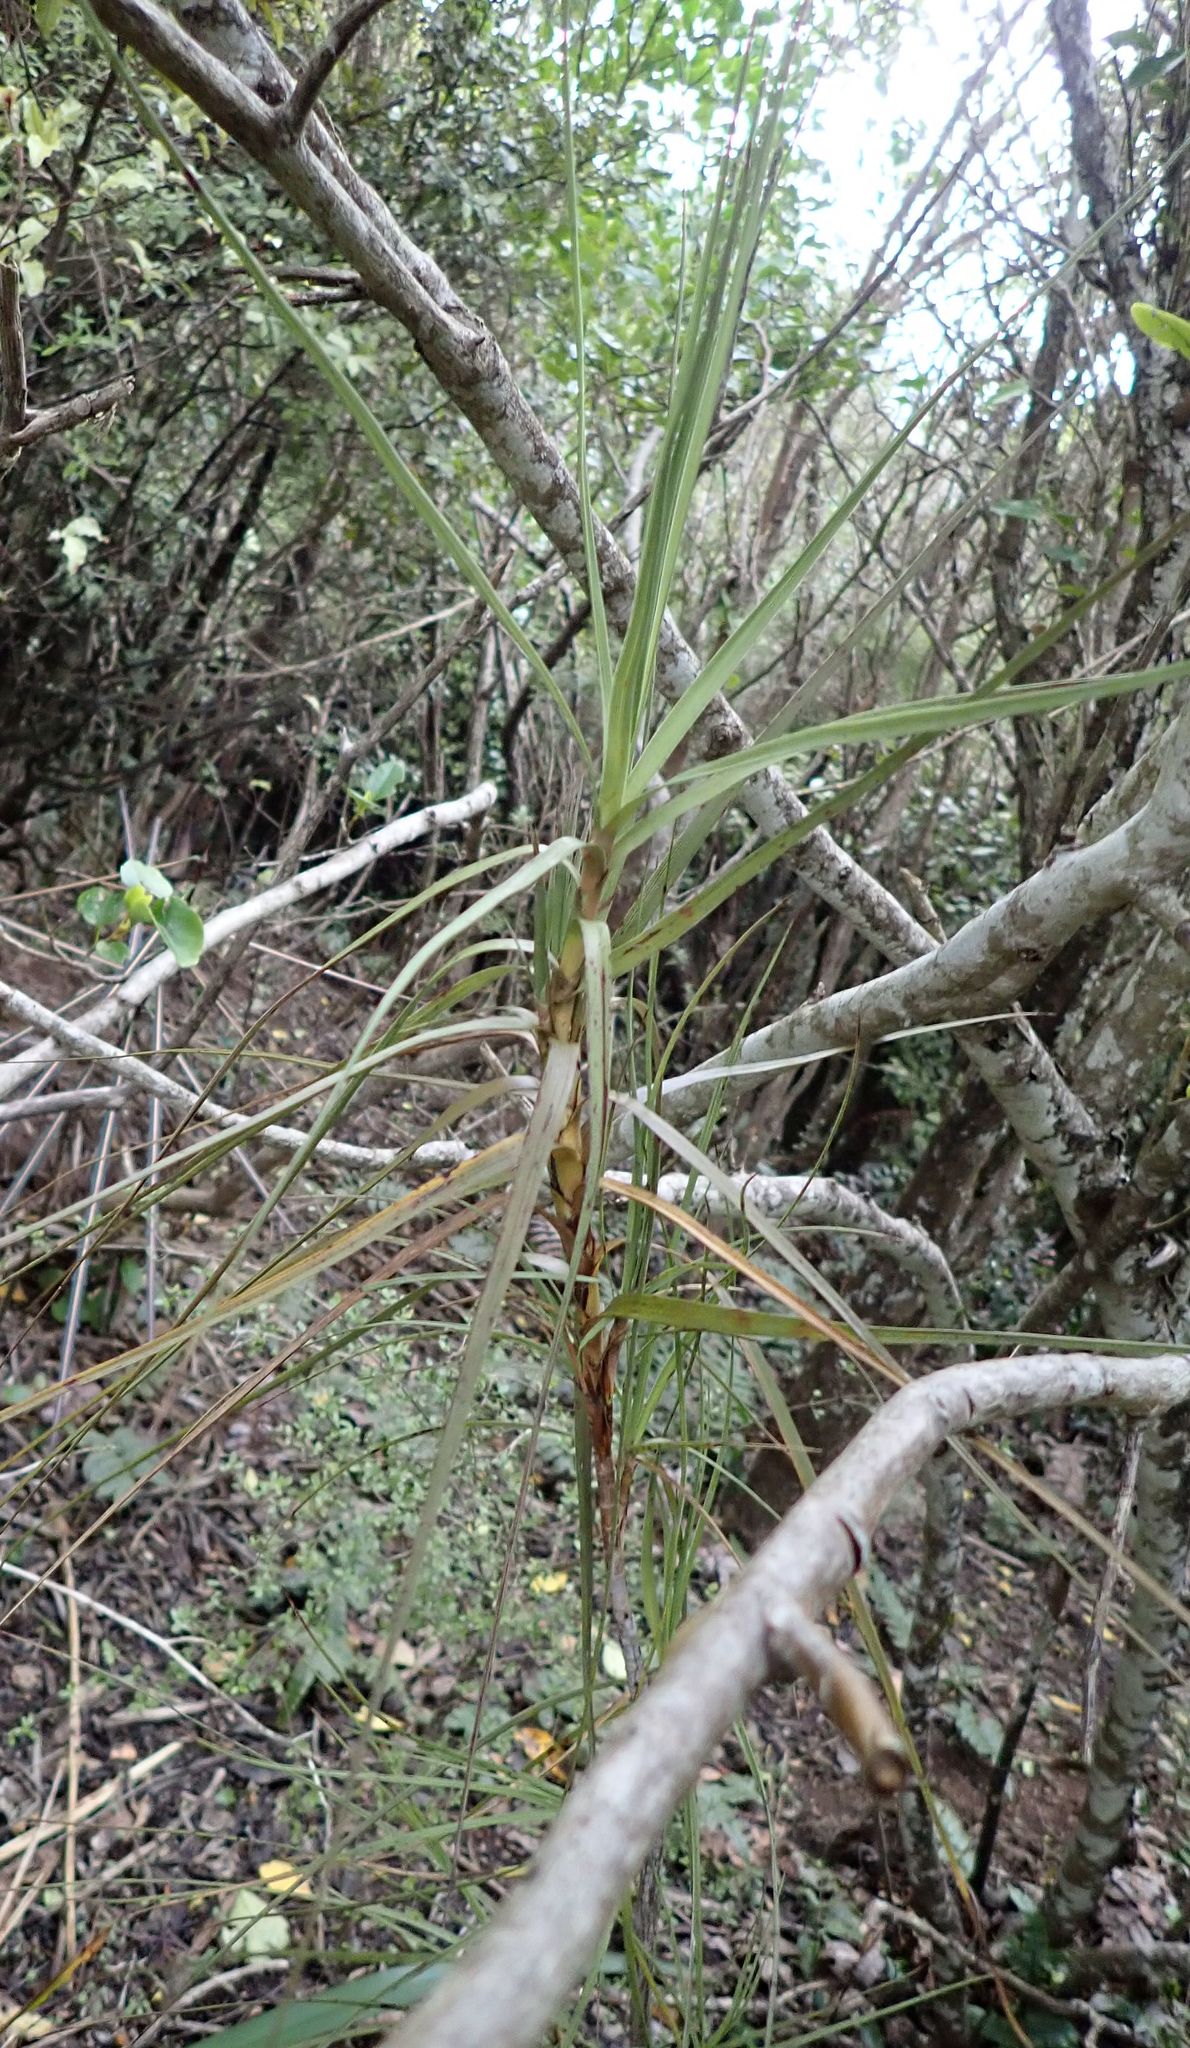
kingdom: Plantae
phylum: Tracheophyta
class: Magnoliopsida
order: Ericales
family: Ericaceae
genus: Dracophyllum
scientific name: Dracophyllum longifolium
